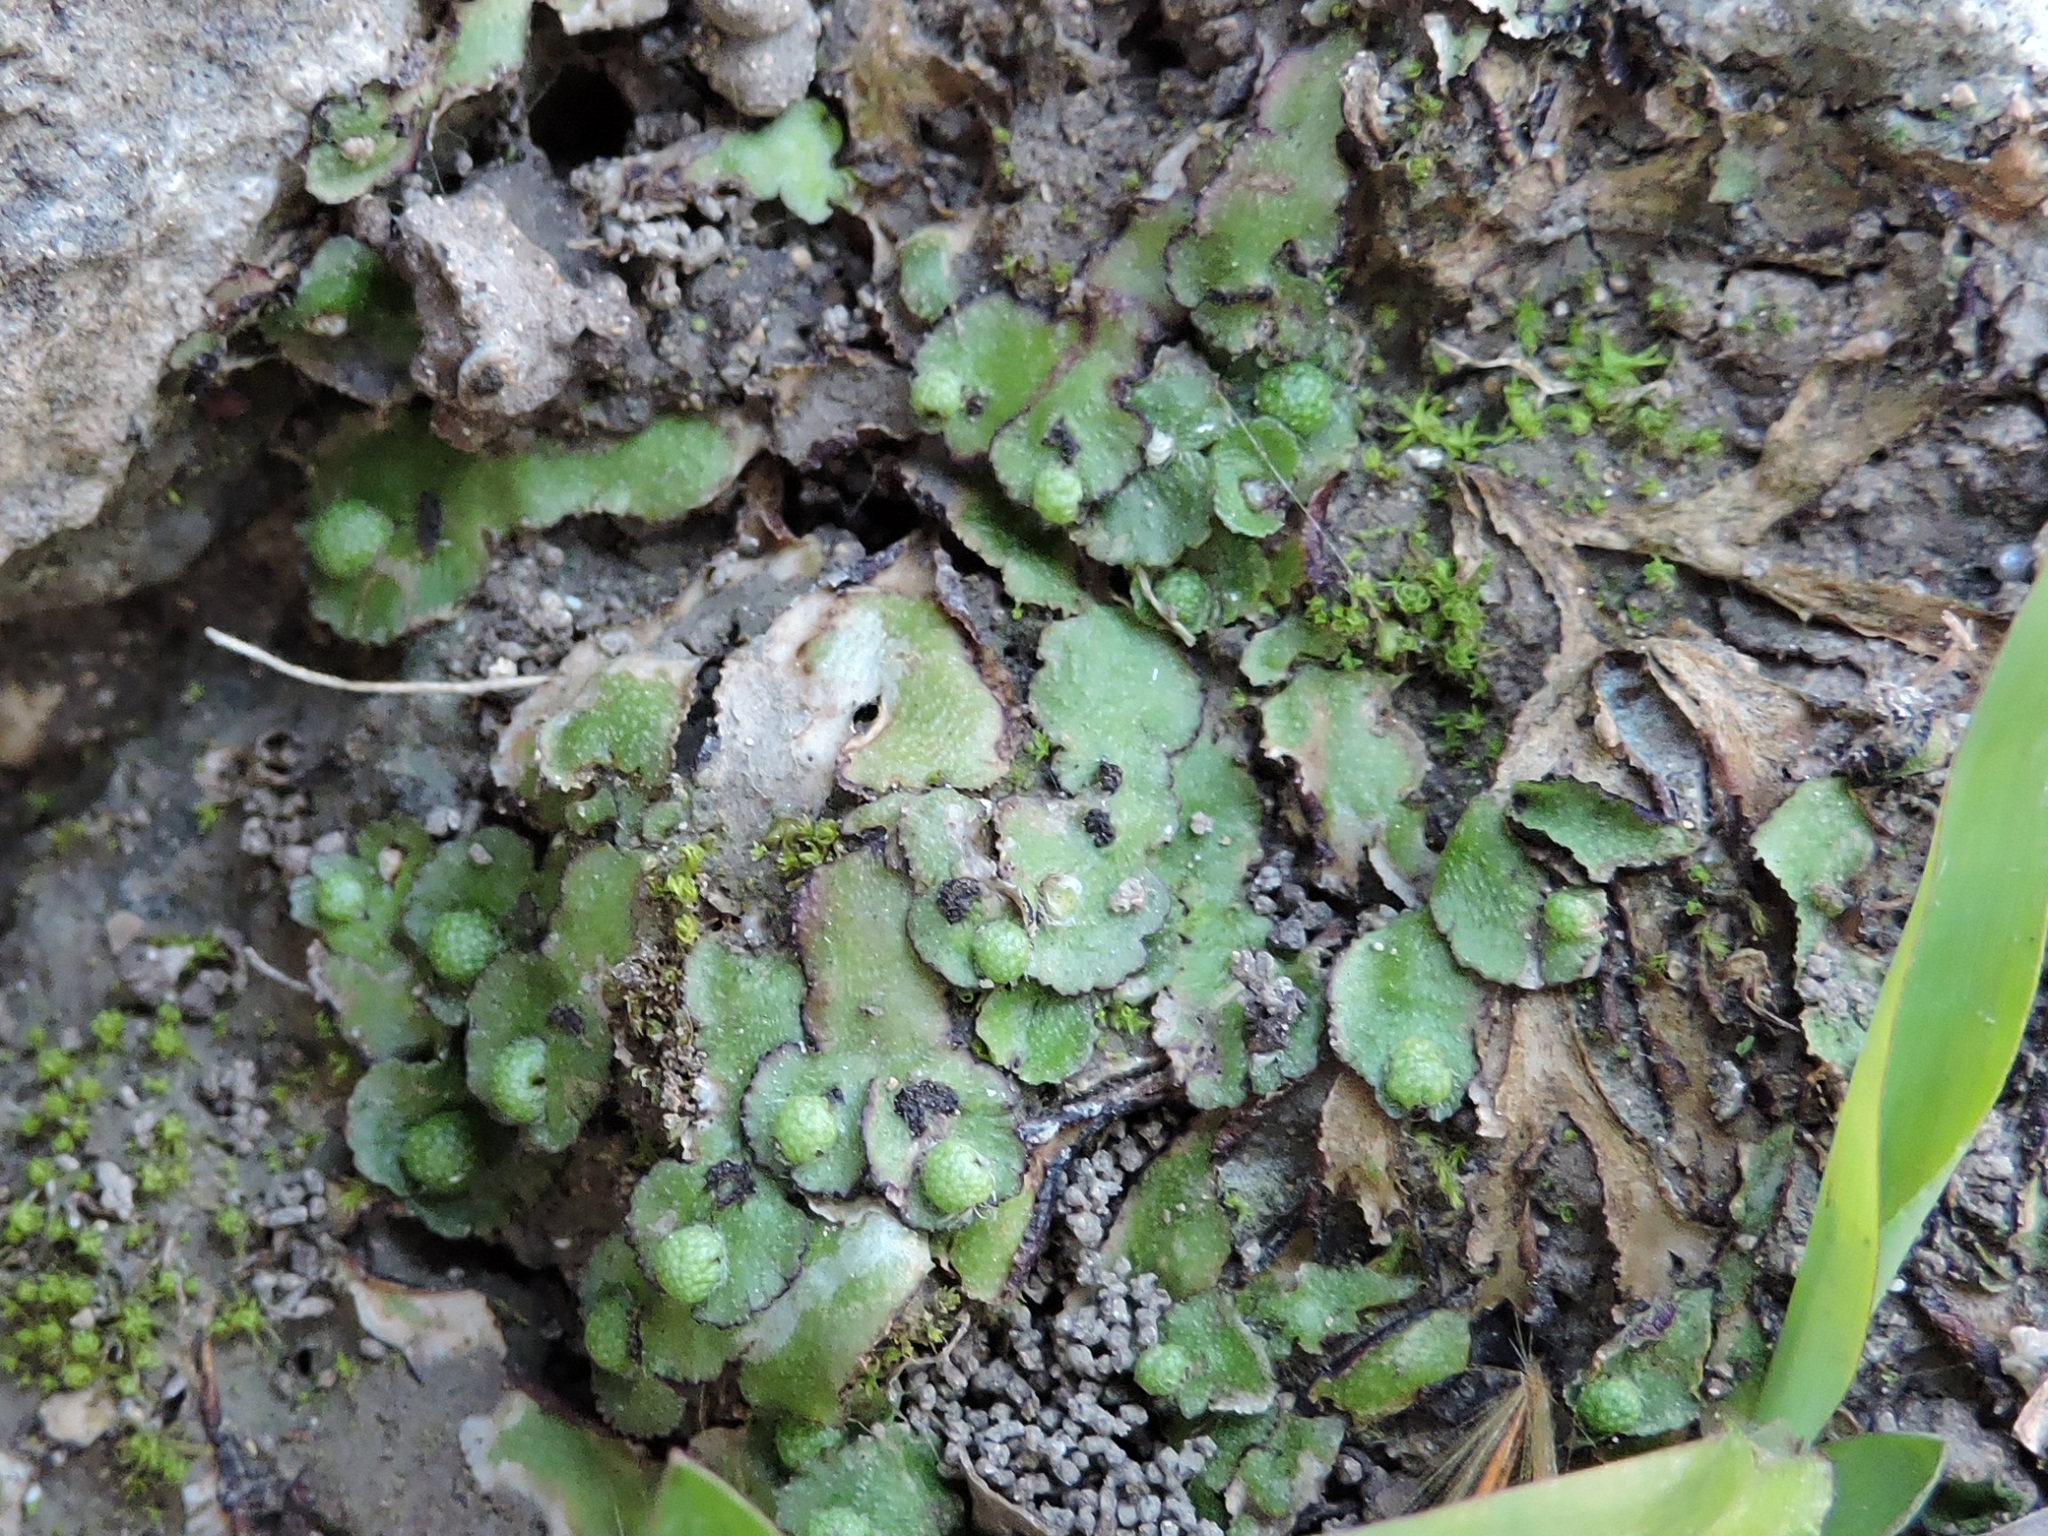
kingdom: Plantae
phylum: Marchantiophyta
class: Marchantiopsida
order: Marchantiales
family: Aytoniaceae
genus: Reboulia
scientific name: Reboulia hemisphaerica
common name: Purple-margined liverwort
